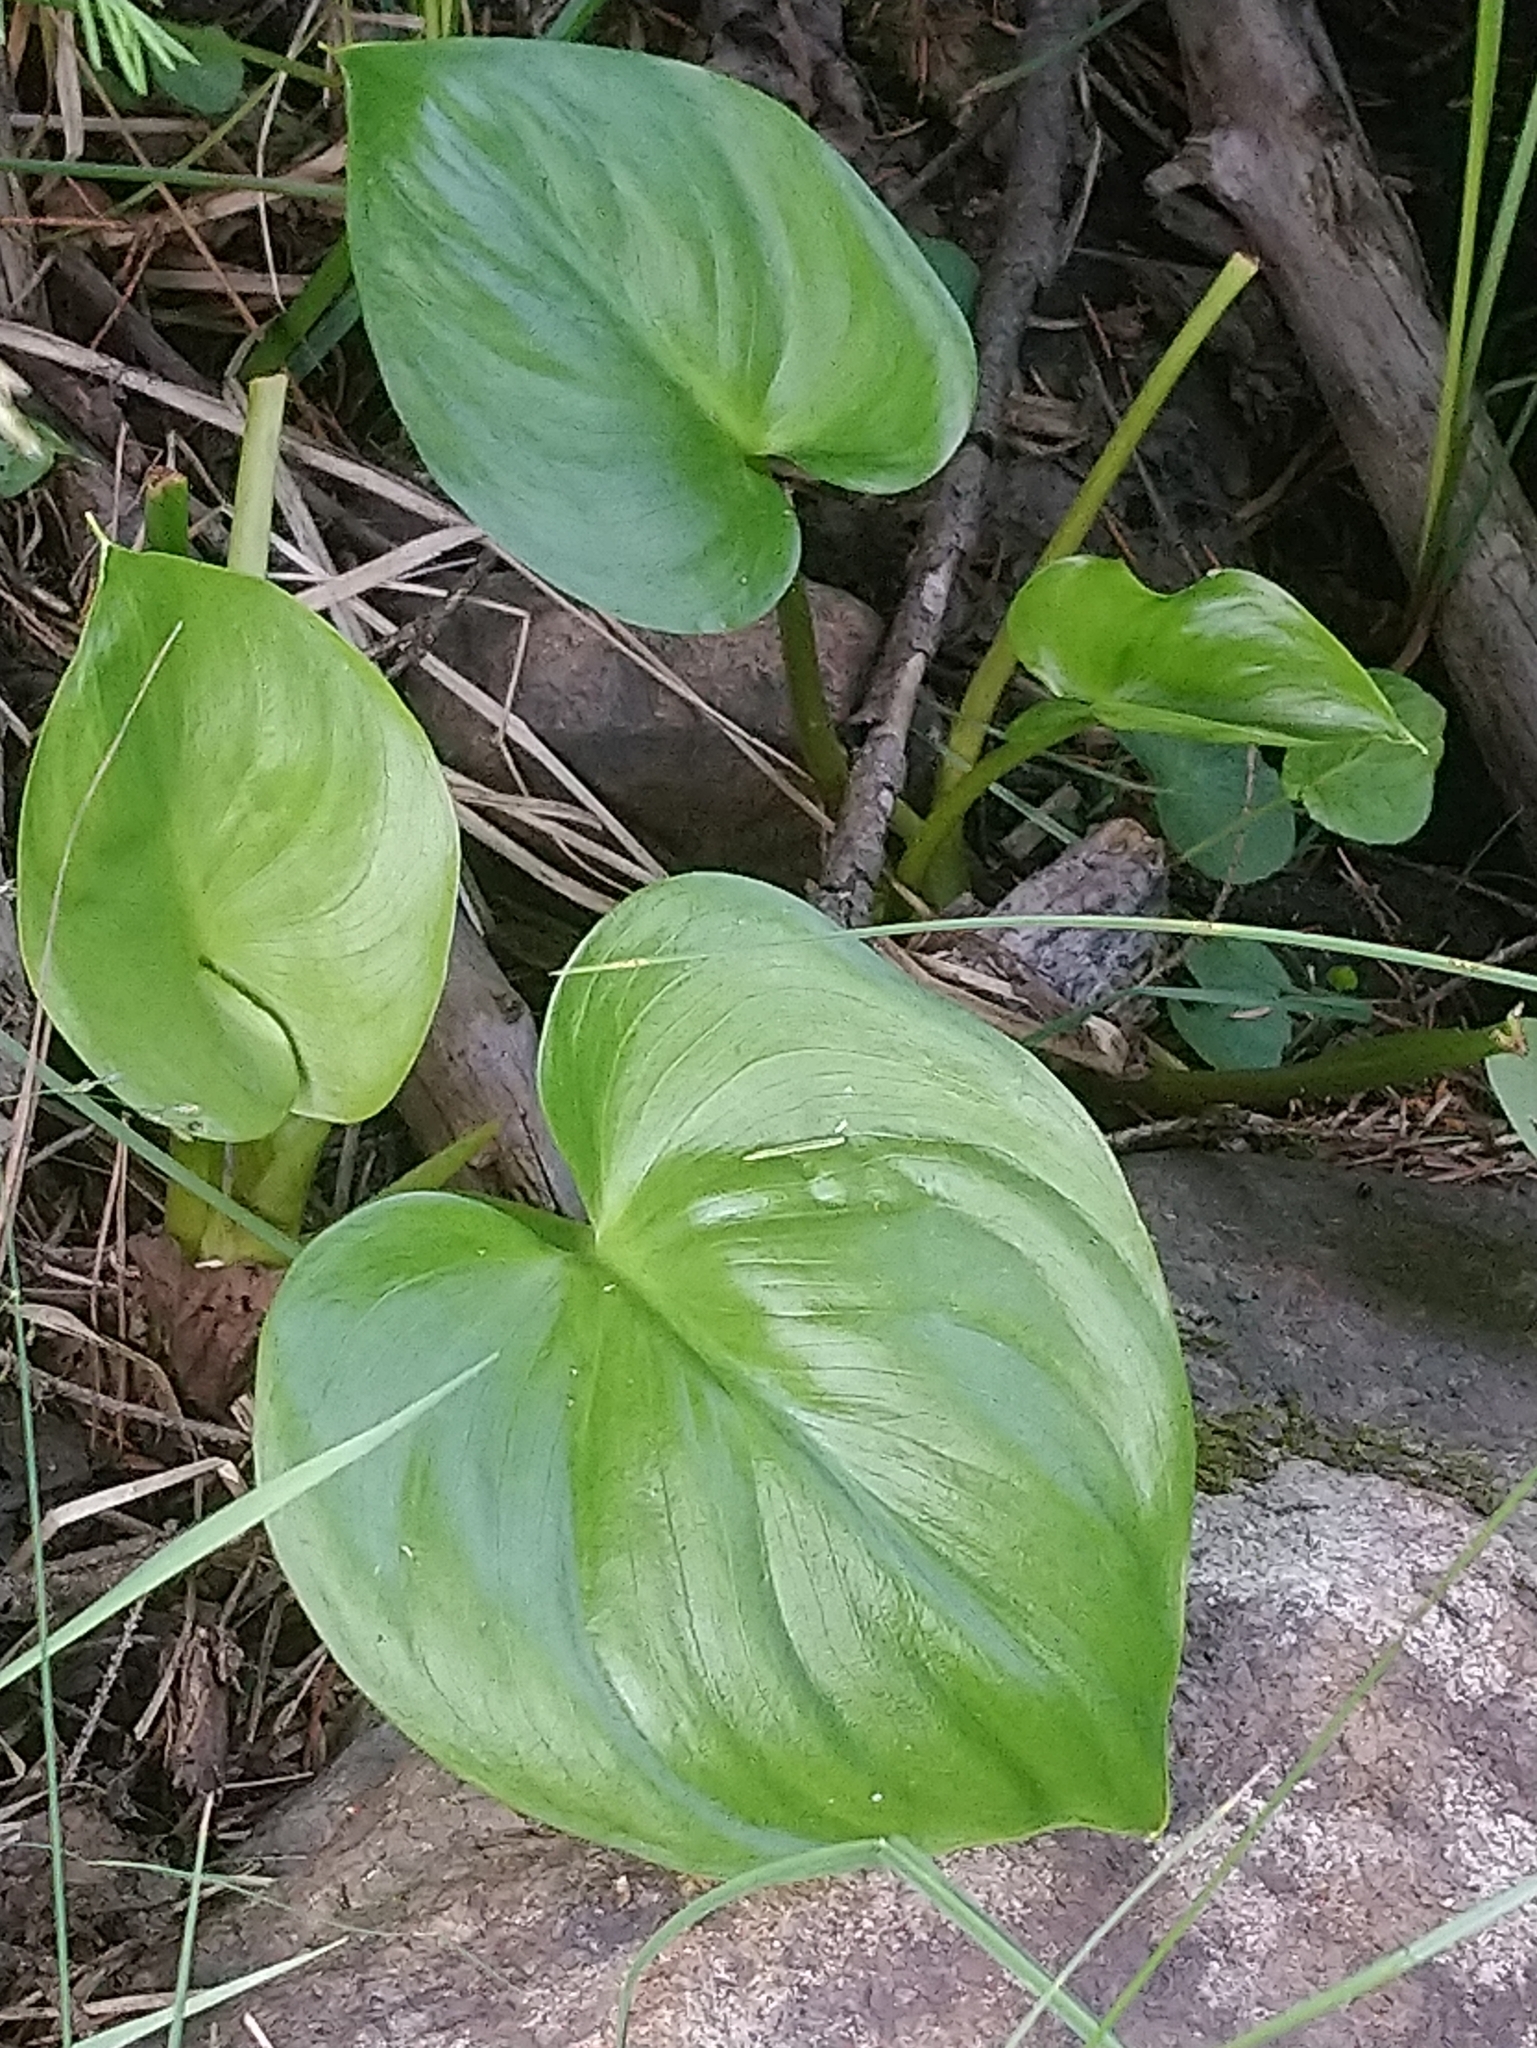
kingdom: Plantae
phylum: Tracheophyta
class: Liliopsida
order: Alismatales
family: Araceae
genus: Calla
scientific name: Calla palustris
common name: Bog arum
